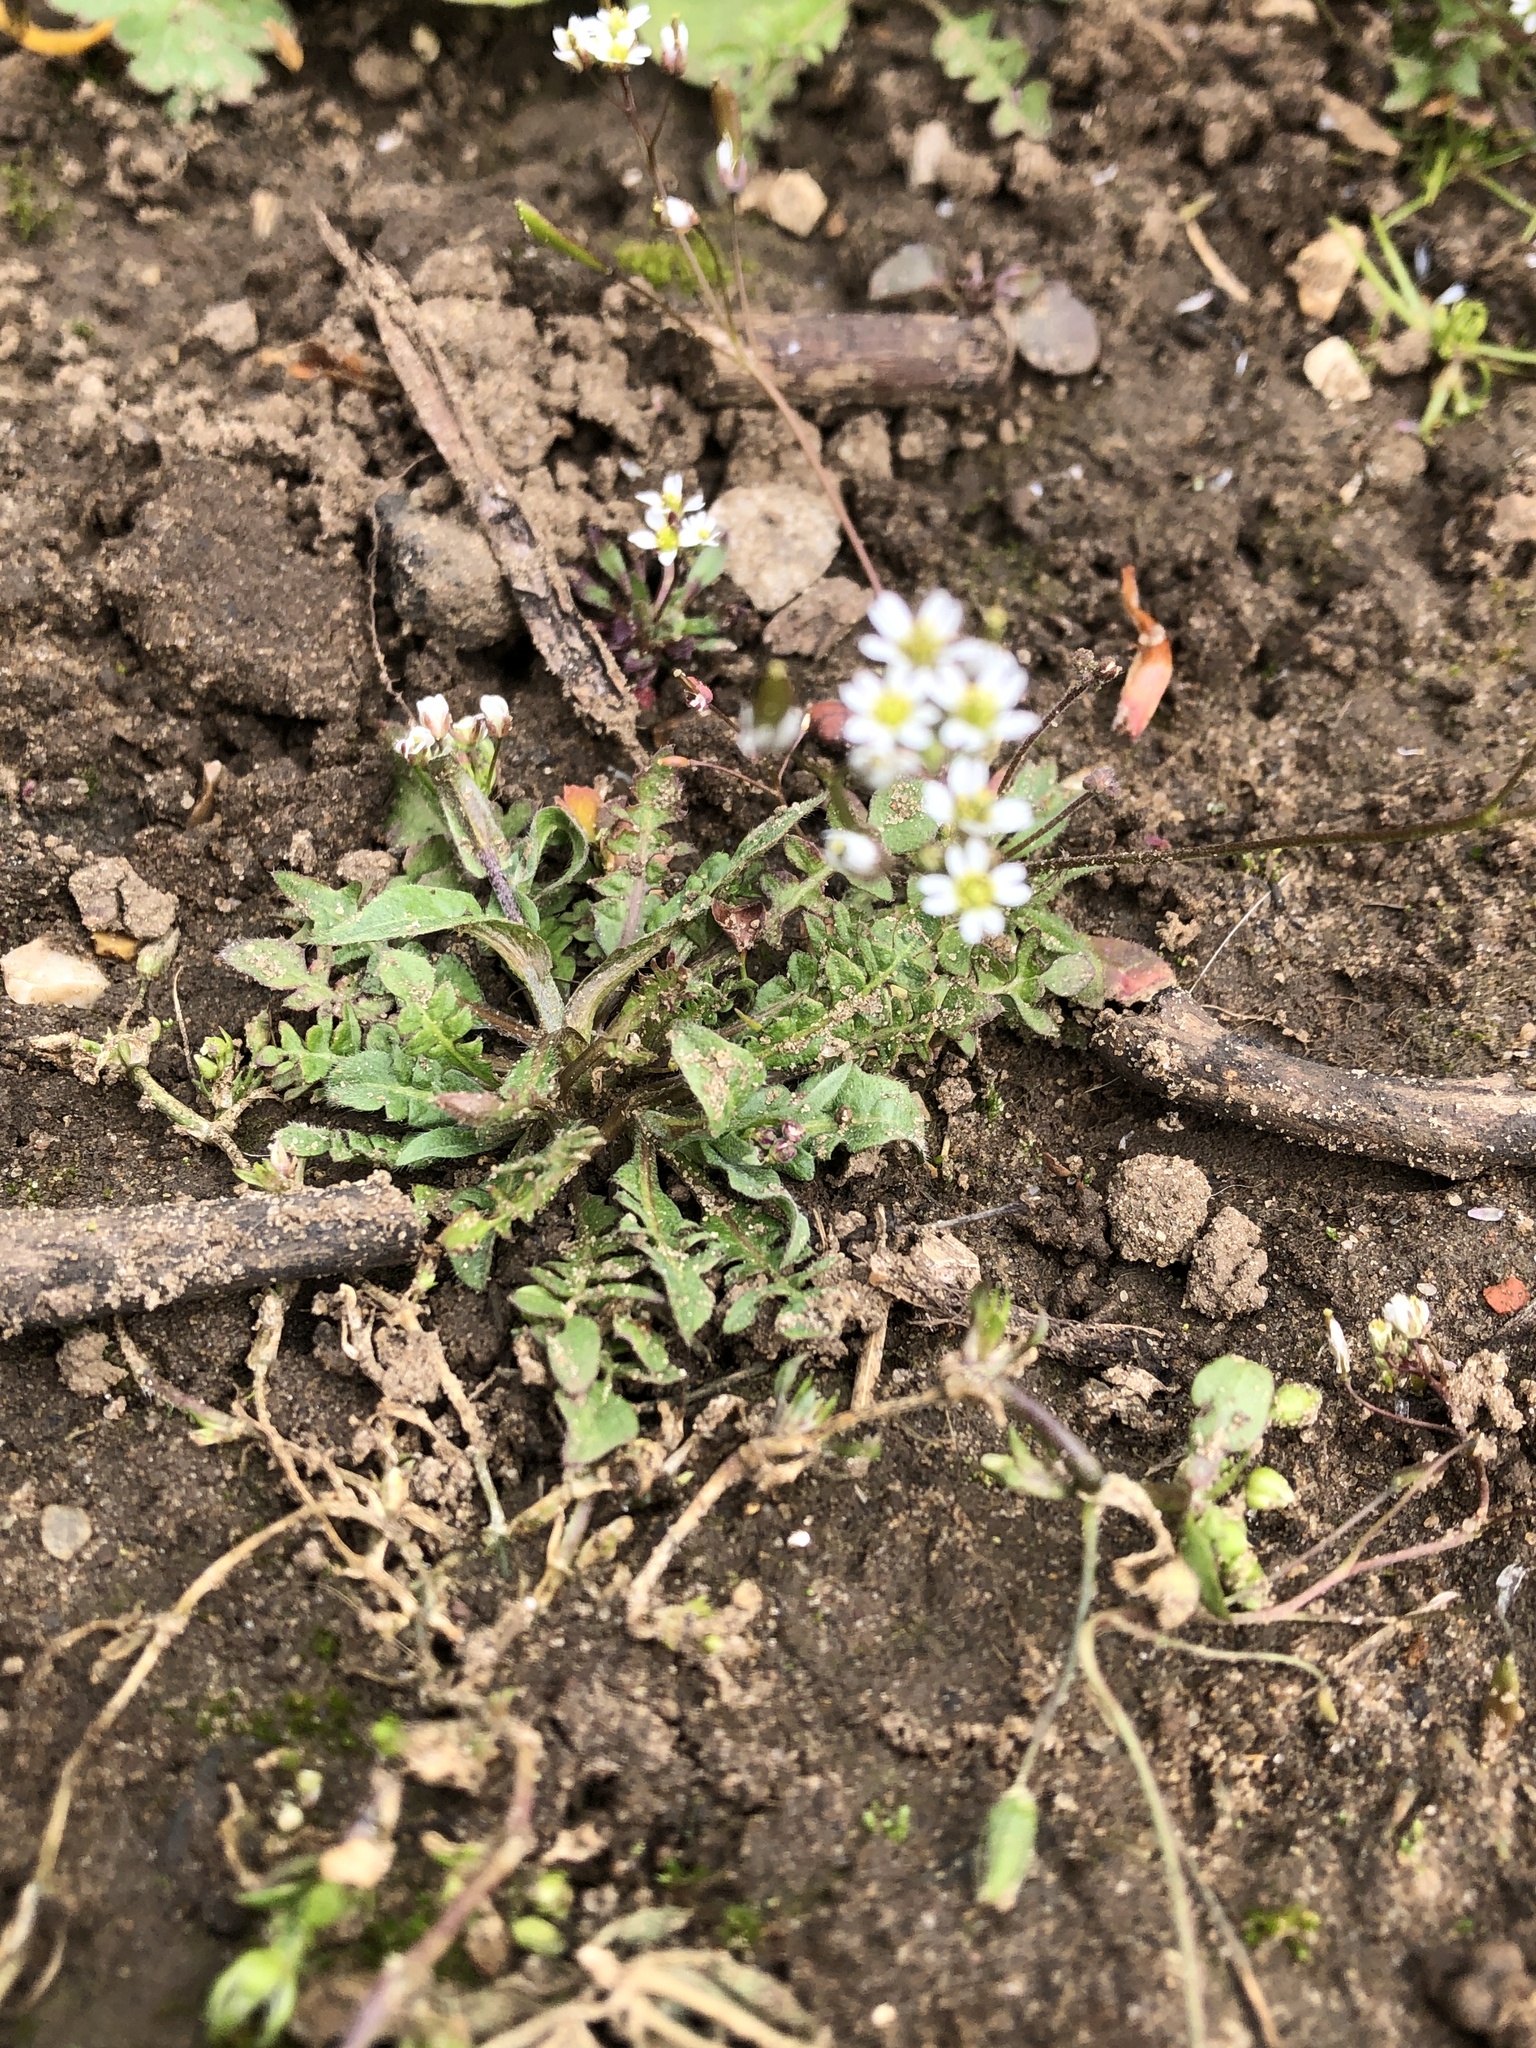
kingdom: Plantae
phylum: Tracheophyta
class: Magnoliopsida
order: Brassicales
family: Brassicaceae
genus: Draba
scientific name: Draba verna
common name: Spring draba
